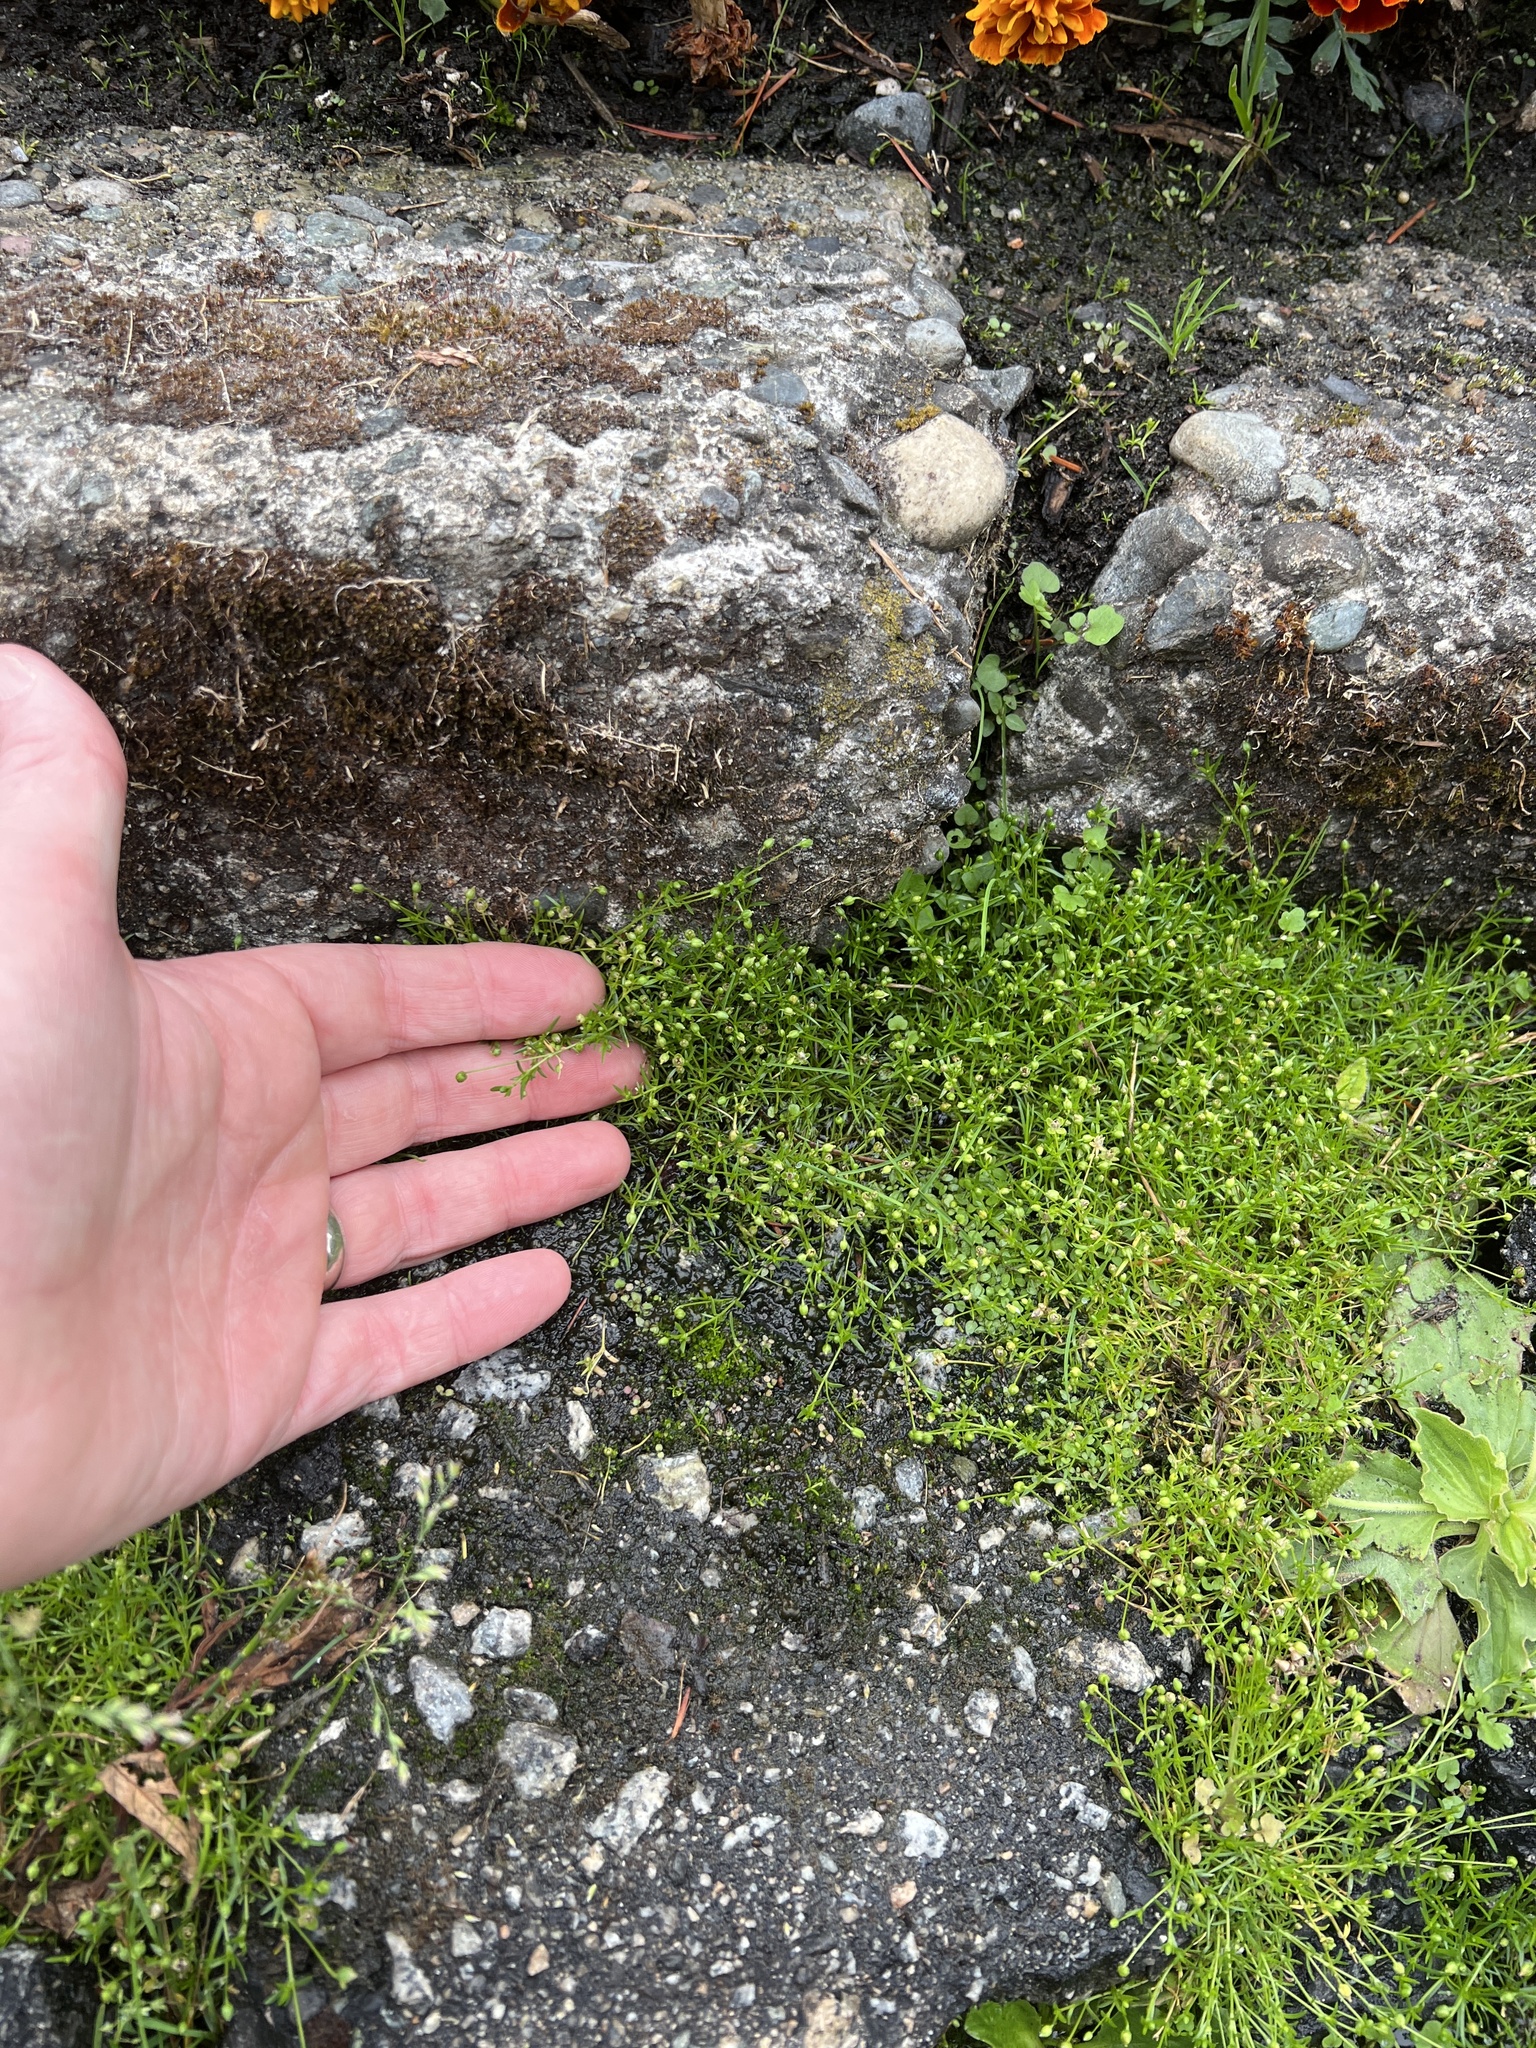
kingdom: Plantae
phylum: Tracheophyta
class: Magnoliopsida
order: Caryophyllales
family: Caryophyllaceae
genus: Sagina
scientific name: Sagina procumbens
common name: Procumbent pearlwort
